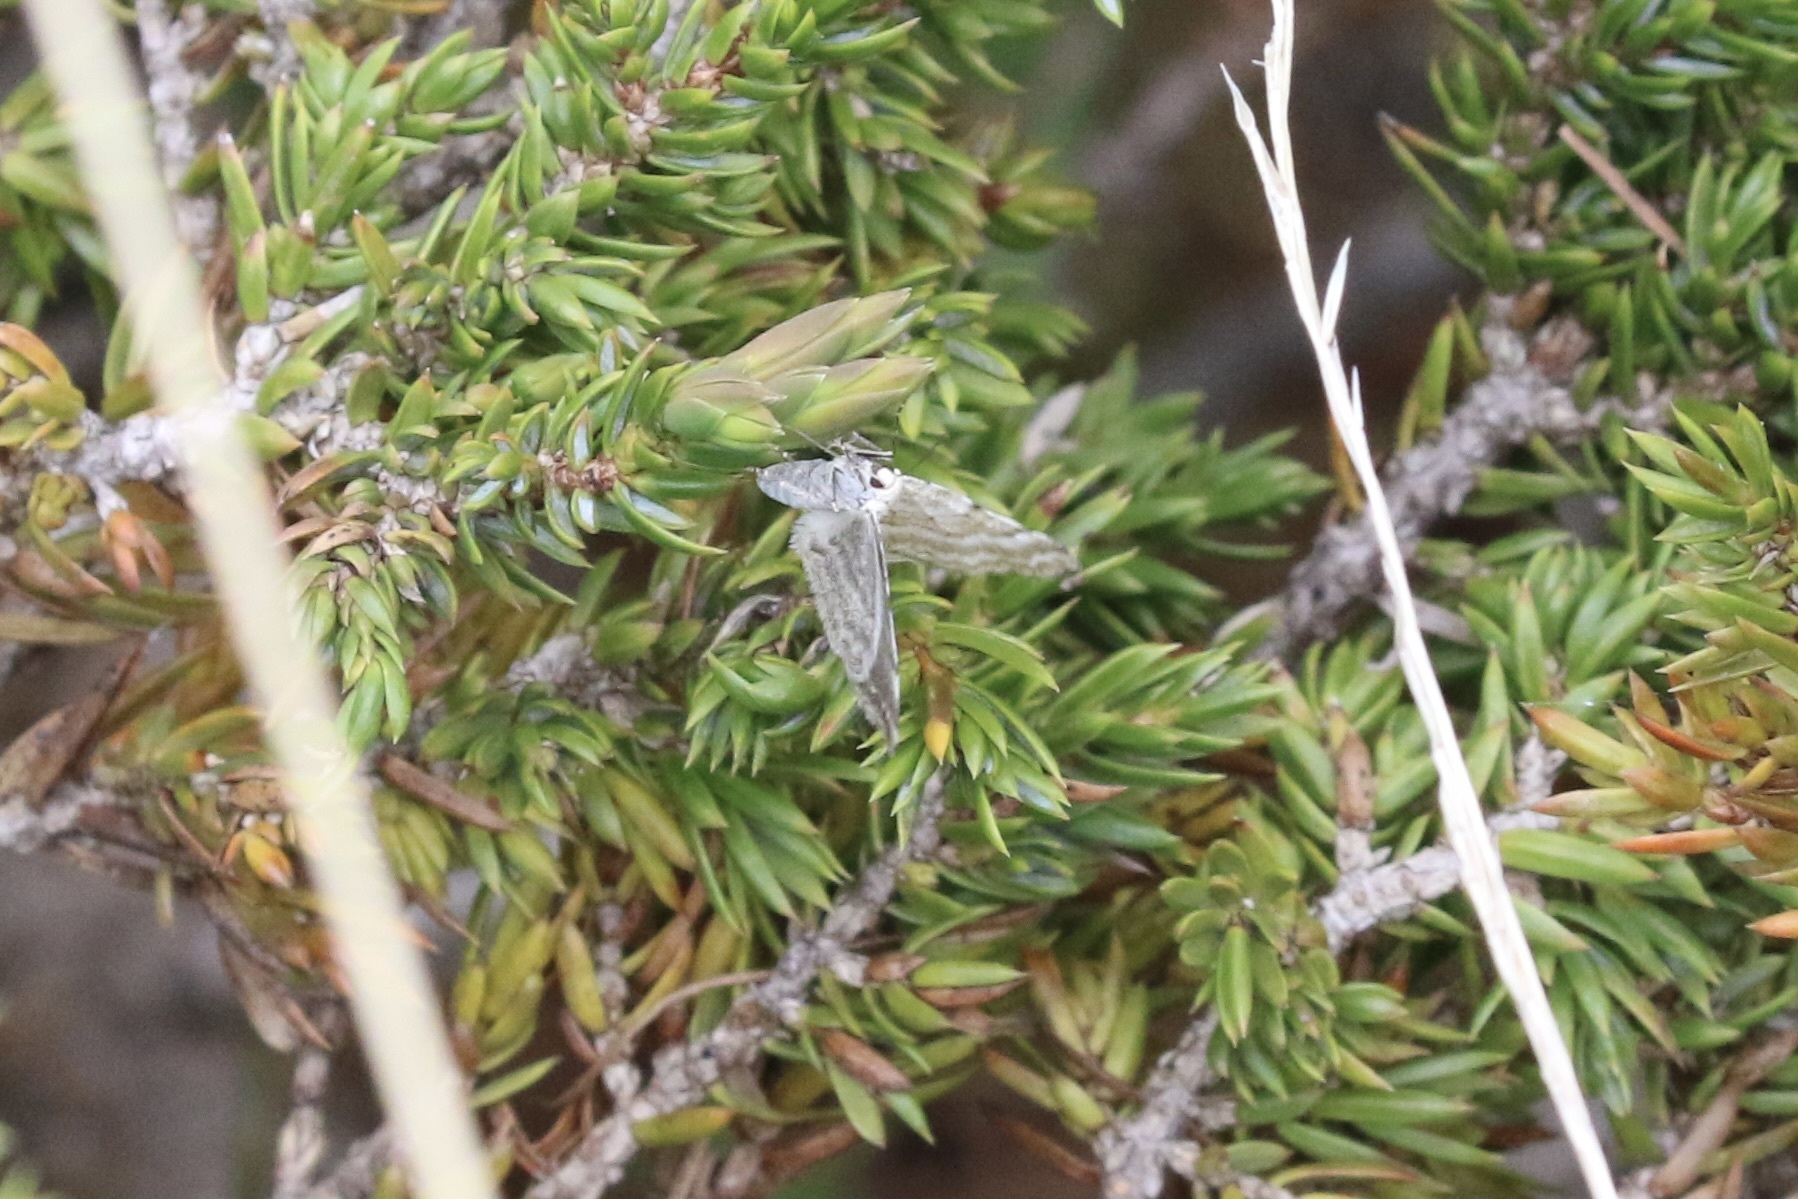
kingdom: Animalia
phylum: Arthropoda
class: Insecta
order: Lepidoptera
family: Geometridae
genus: Perizoma
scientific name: Perizoma albulata
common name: Grass rivulet
